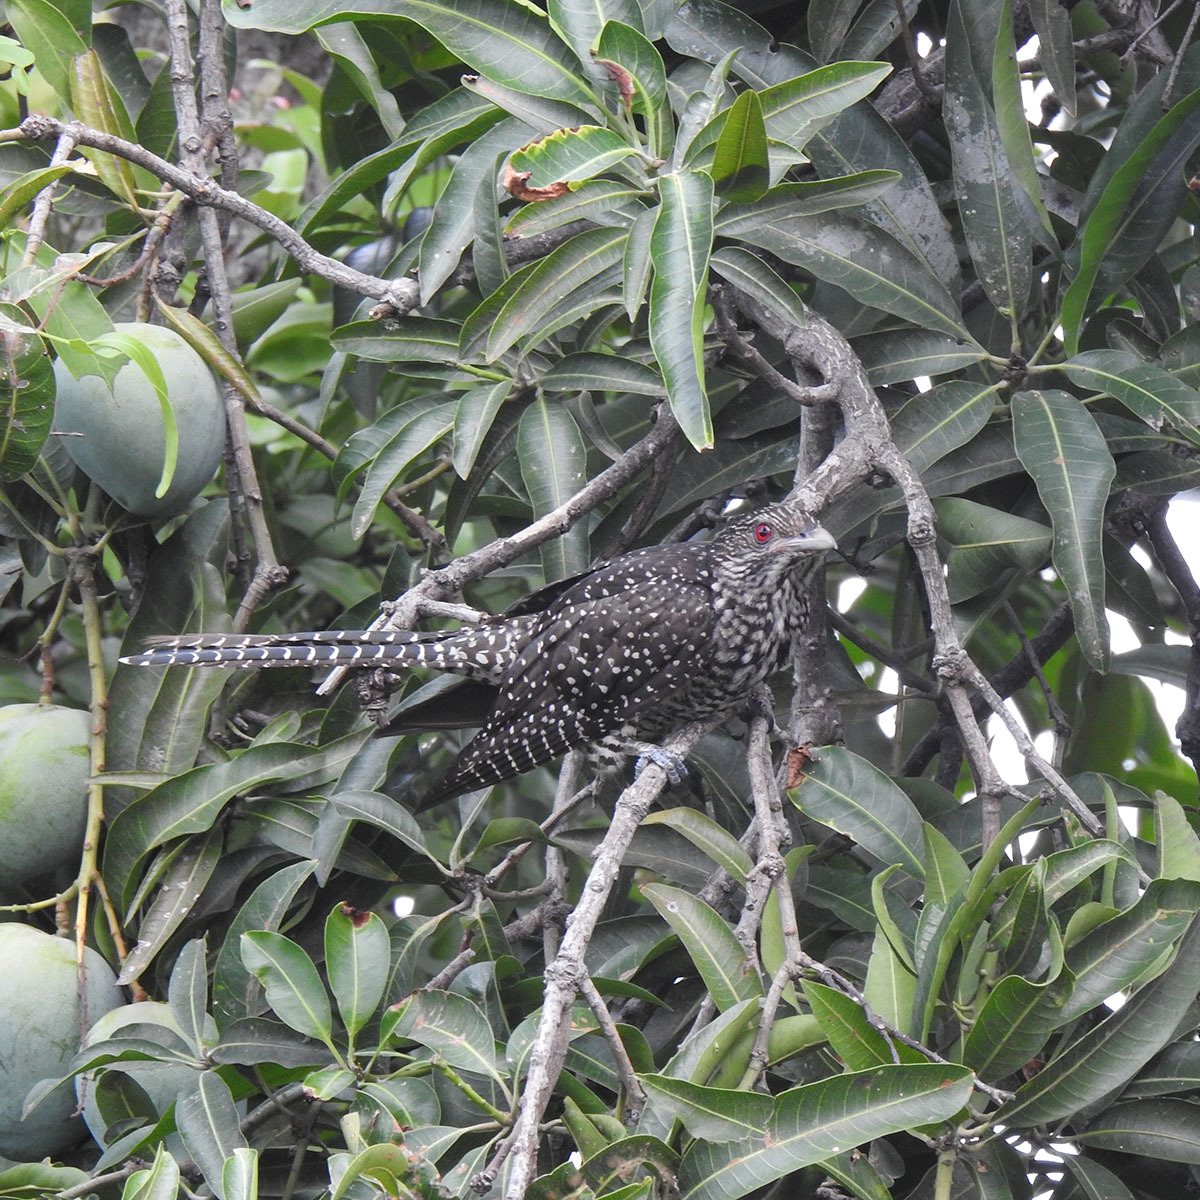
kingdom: Animalia
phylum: Chordata
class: Aves
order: Cuculiformes
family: Cuculidae
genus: Eudynamys
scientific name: Eudynamys scolopaceus
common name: Asian koel
